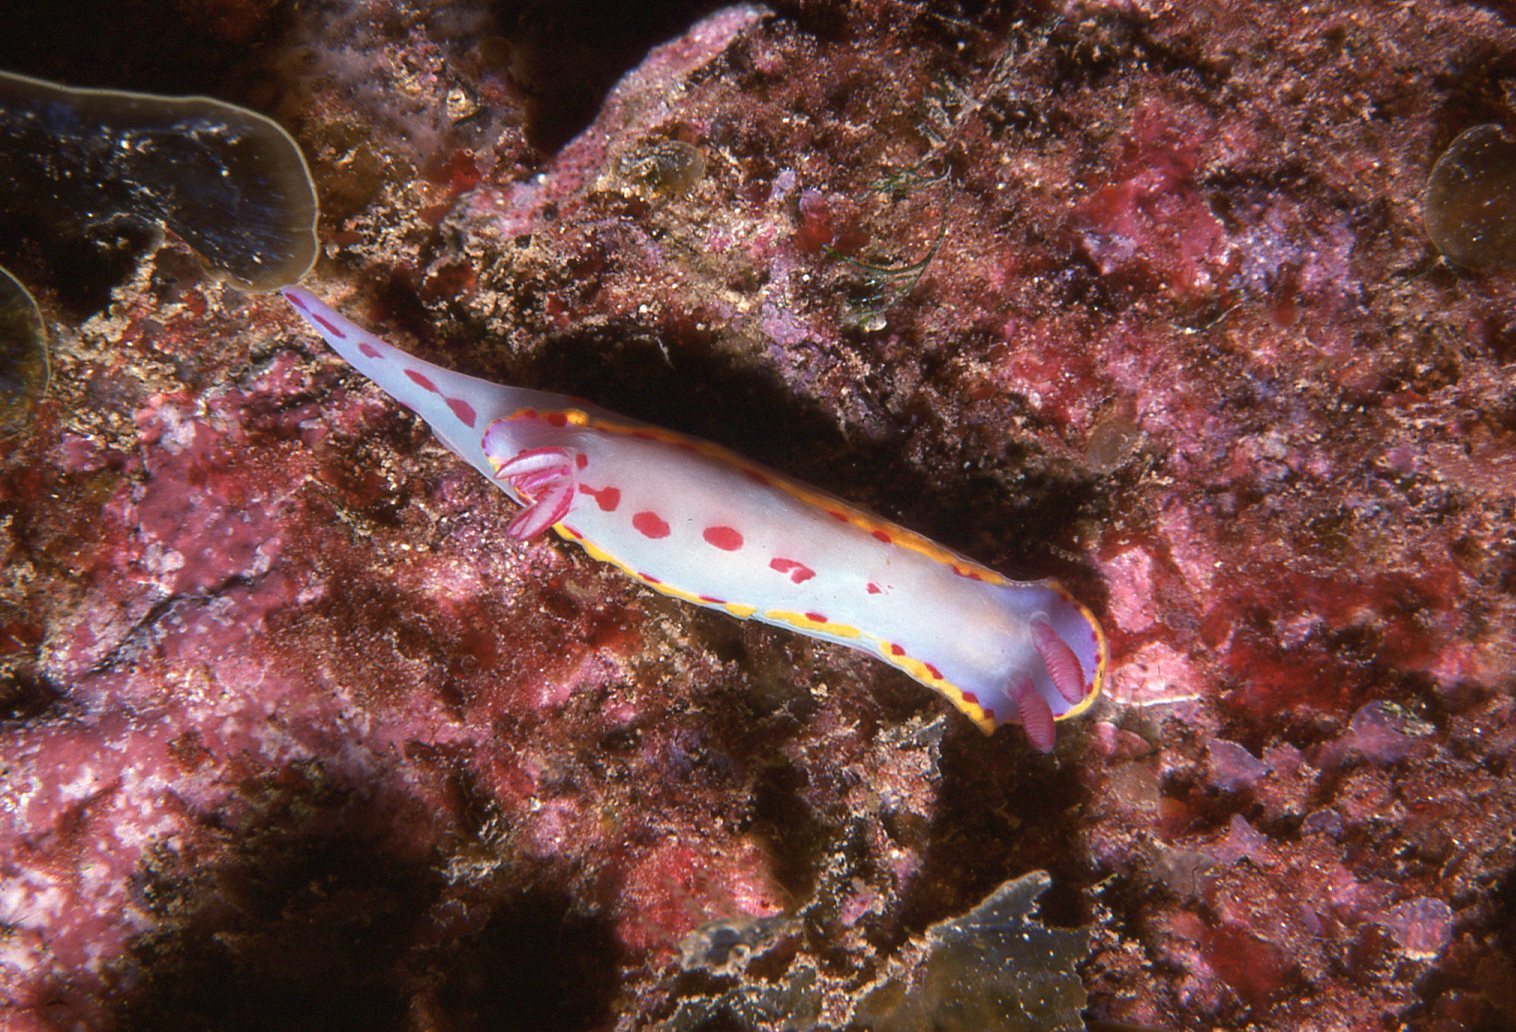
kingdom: Animalia
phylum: Mollusca
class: Gastropoda
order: Nudibranchia
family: Chromodorididae
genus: Hypselodoris
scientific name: Hypselodoris bennetti
